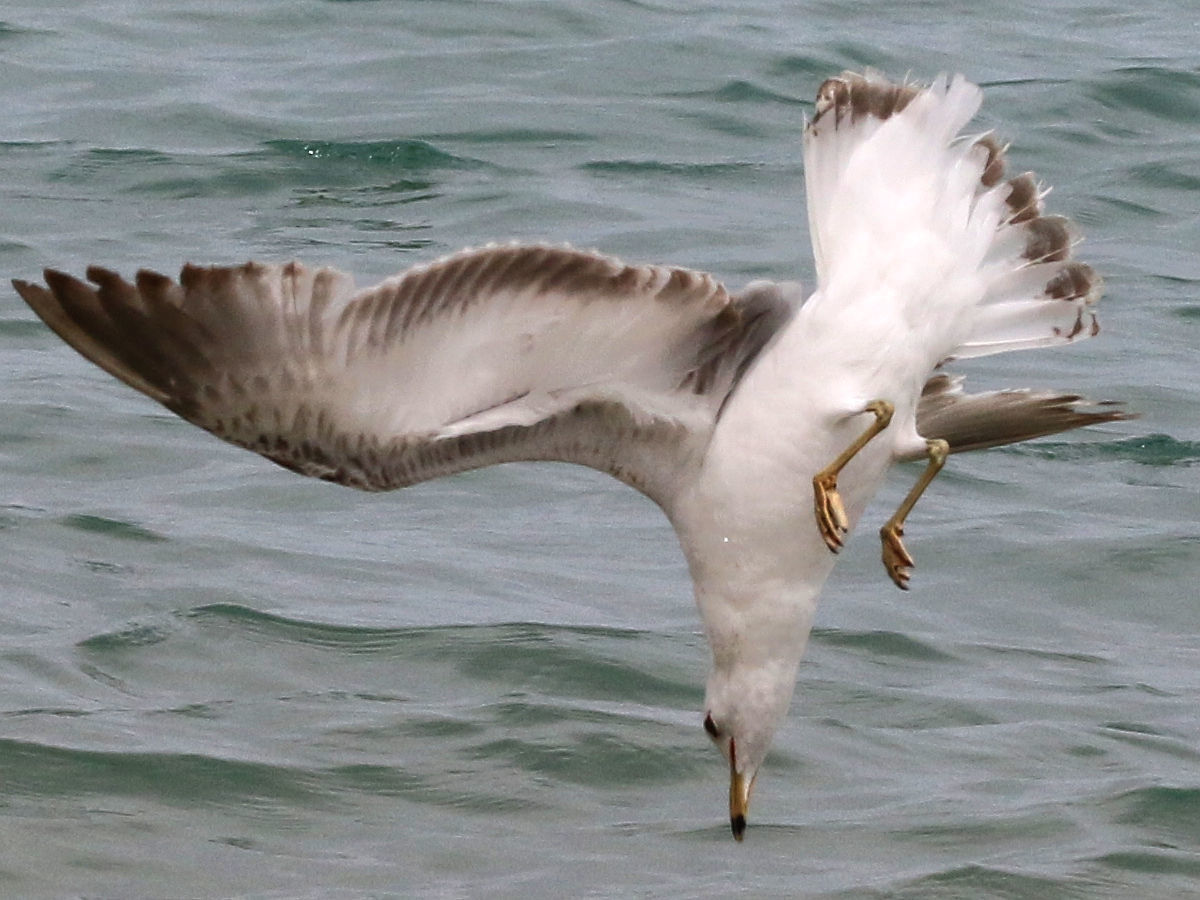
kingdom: Animalia
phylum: Chordata
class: Aves
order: Charadriiformes
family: Laridae
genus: Larus
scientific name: Larus delawarensis
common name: Ring-billed gull
